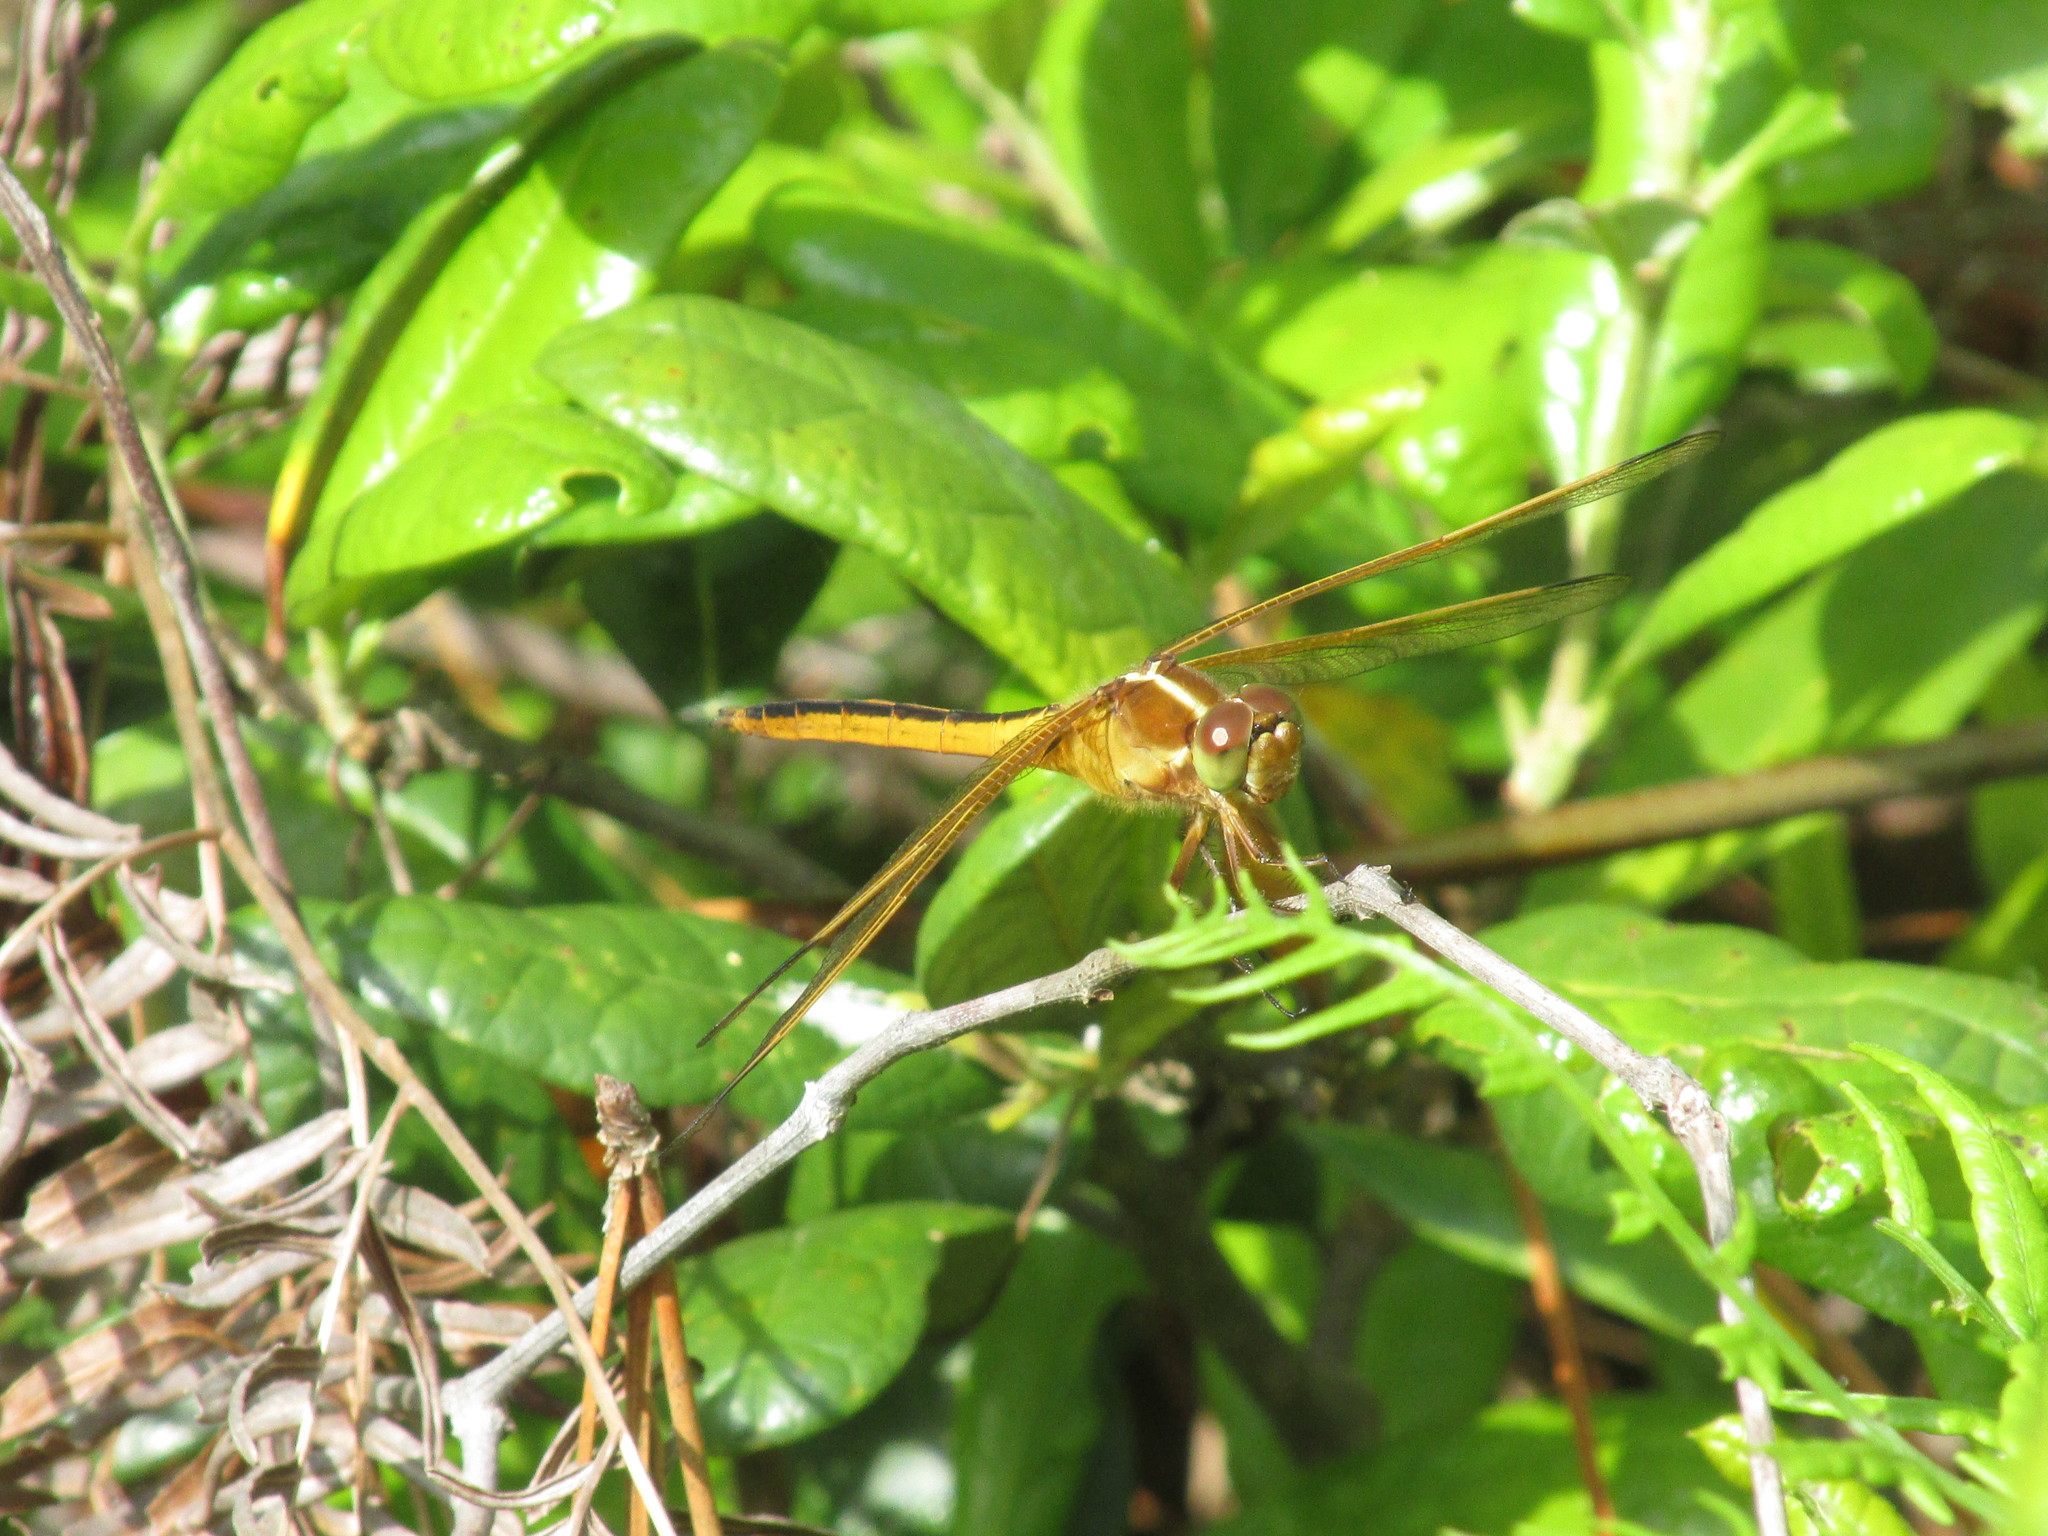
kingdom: Animalia
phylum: Arthropoda
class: Insecta
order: Odonata
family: Libellulidae
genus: Libellula
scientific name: Libellula needhami
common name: Needham's skimmer
